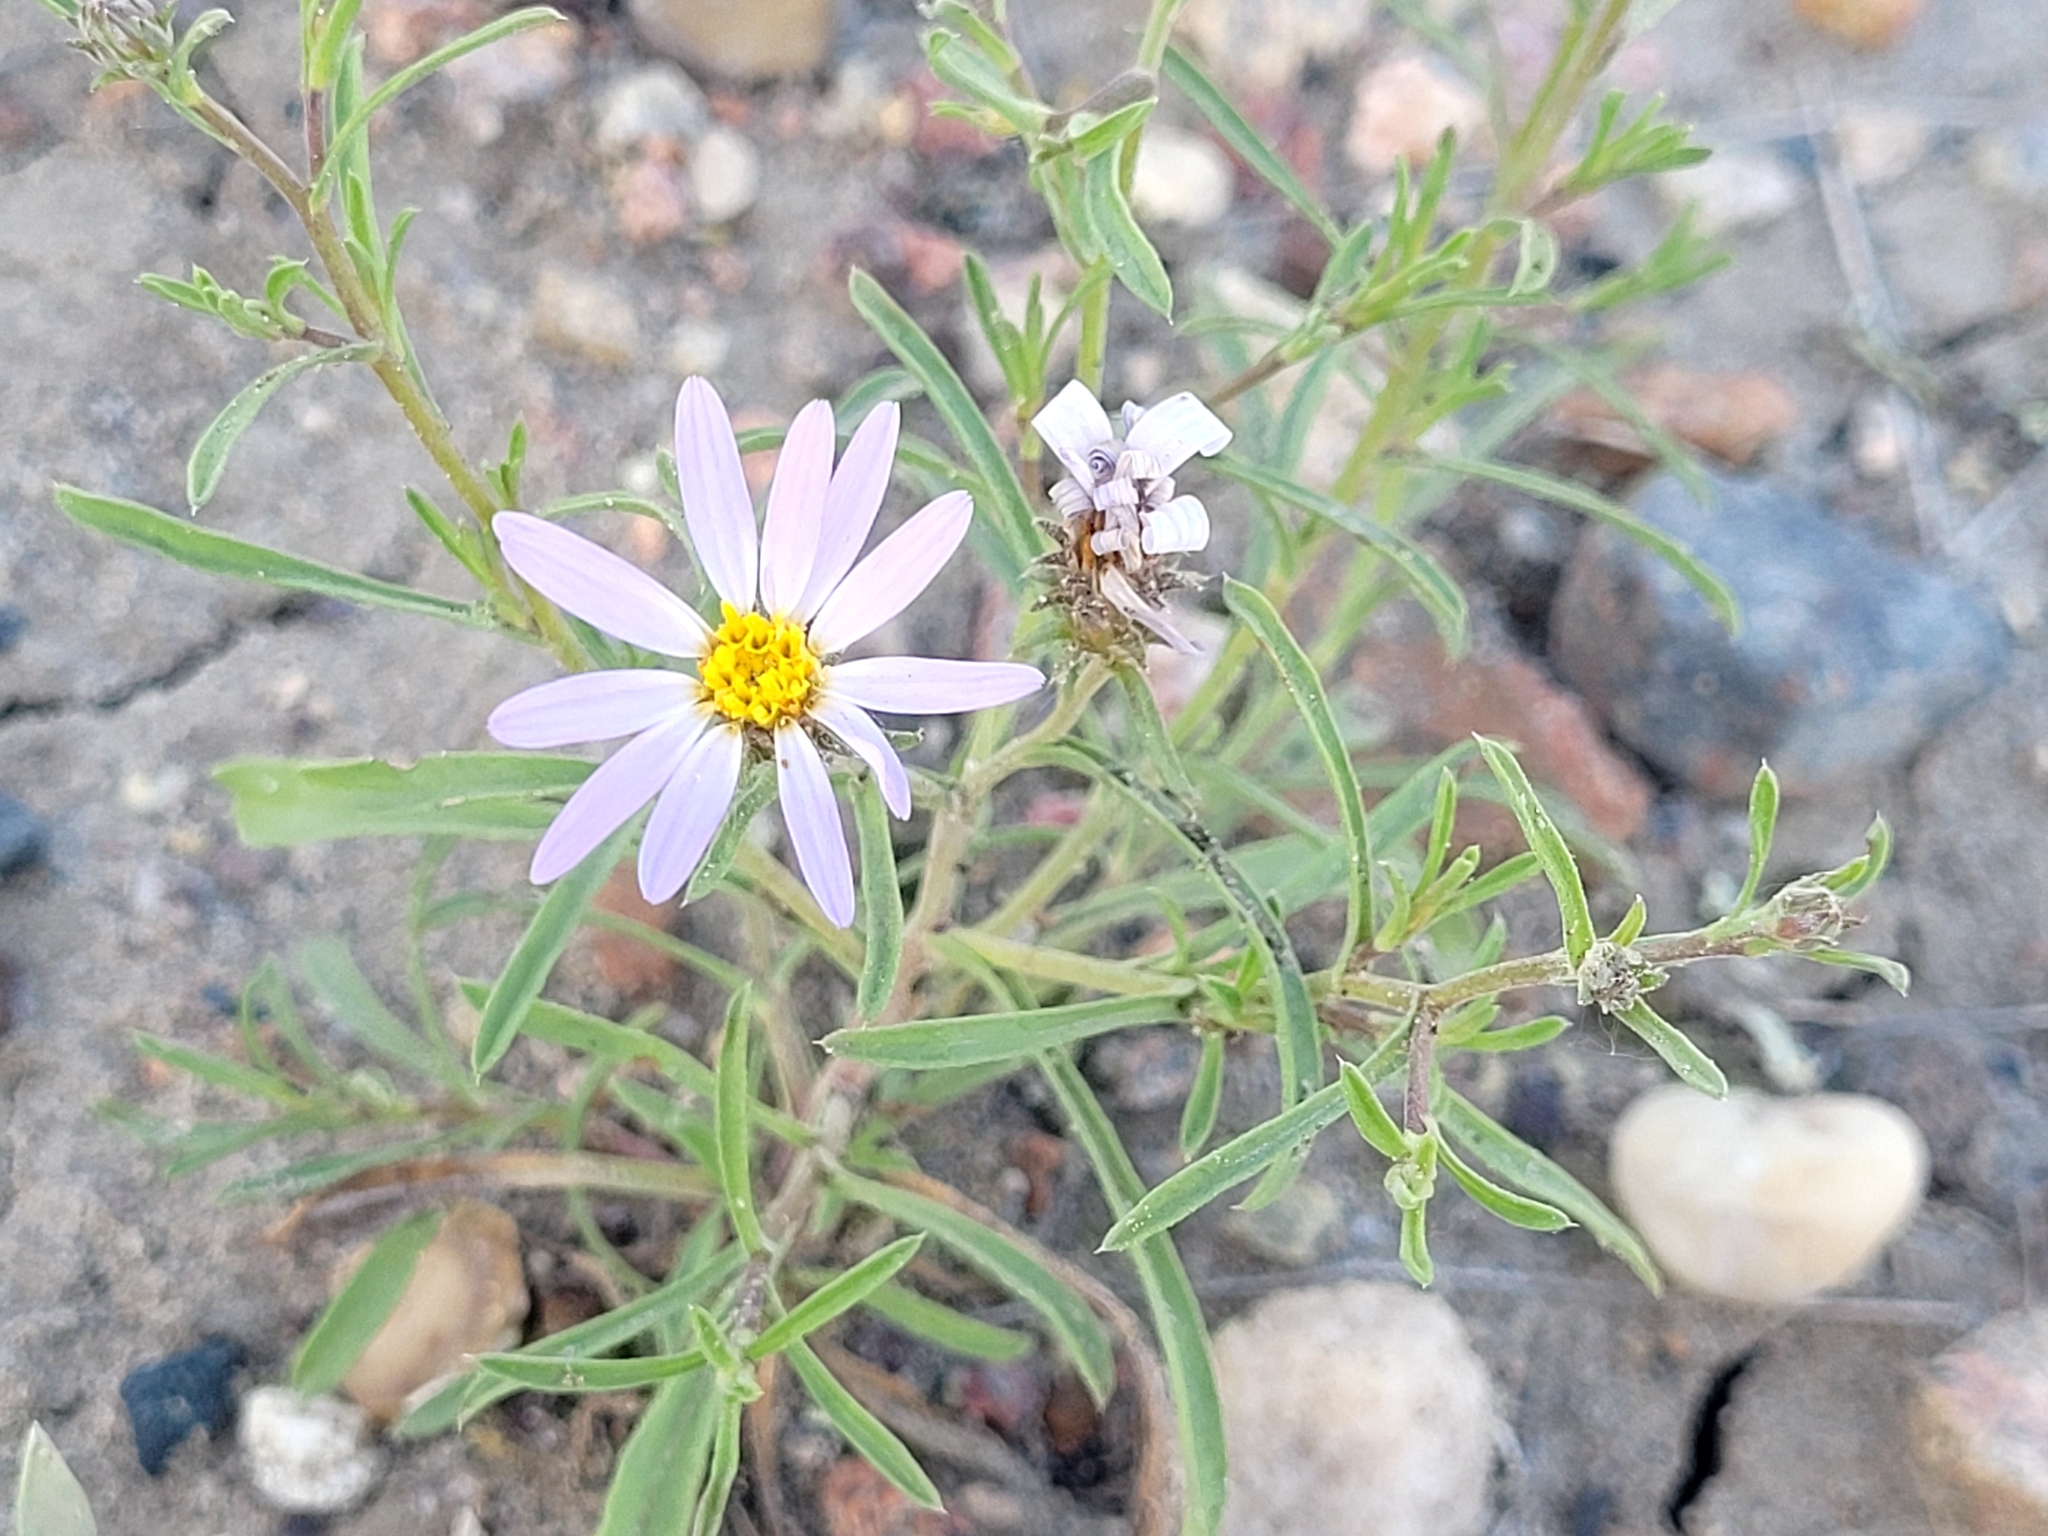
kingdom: Plantae
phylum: Tracheophyta
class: Magnoliopsida
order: Asterales
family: Asteraceae
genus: Dieteria
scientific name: Dieteria canescens
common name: Hoary-aster
